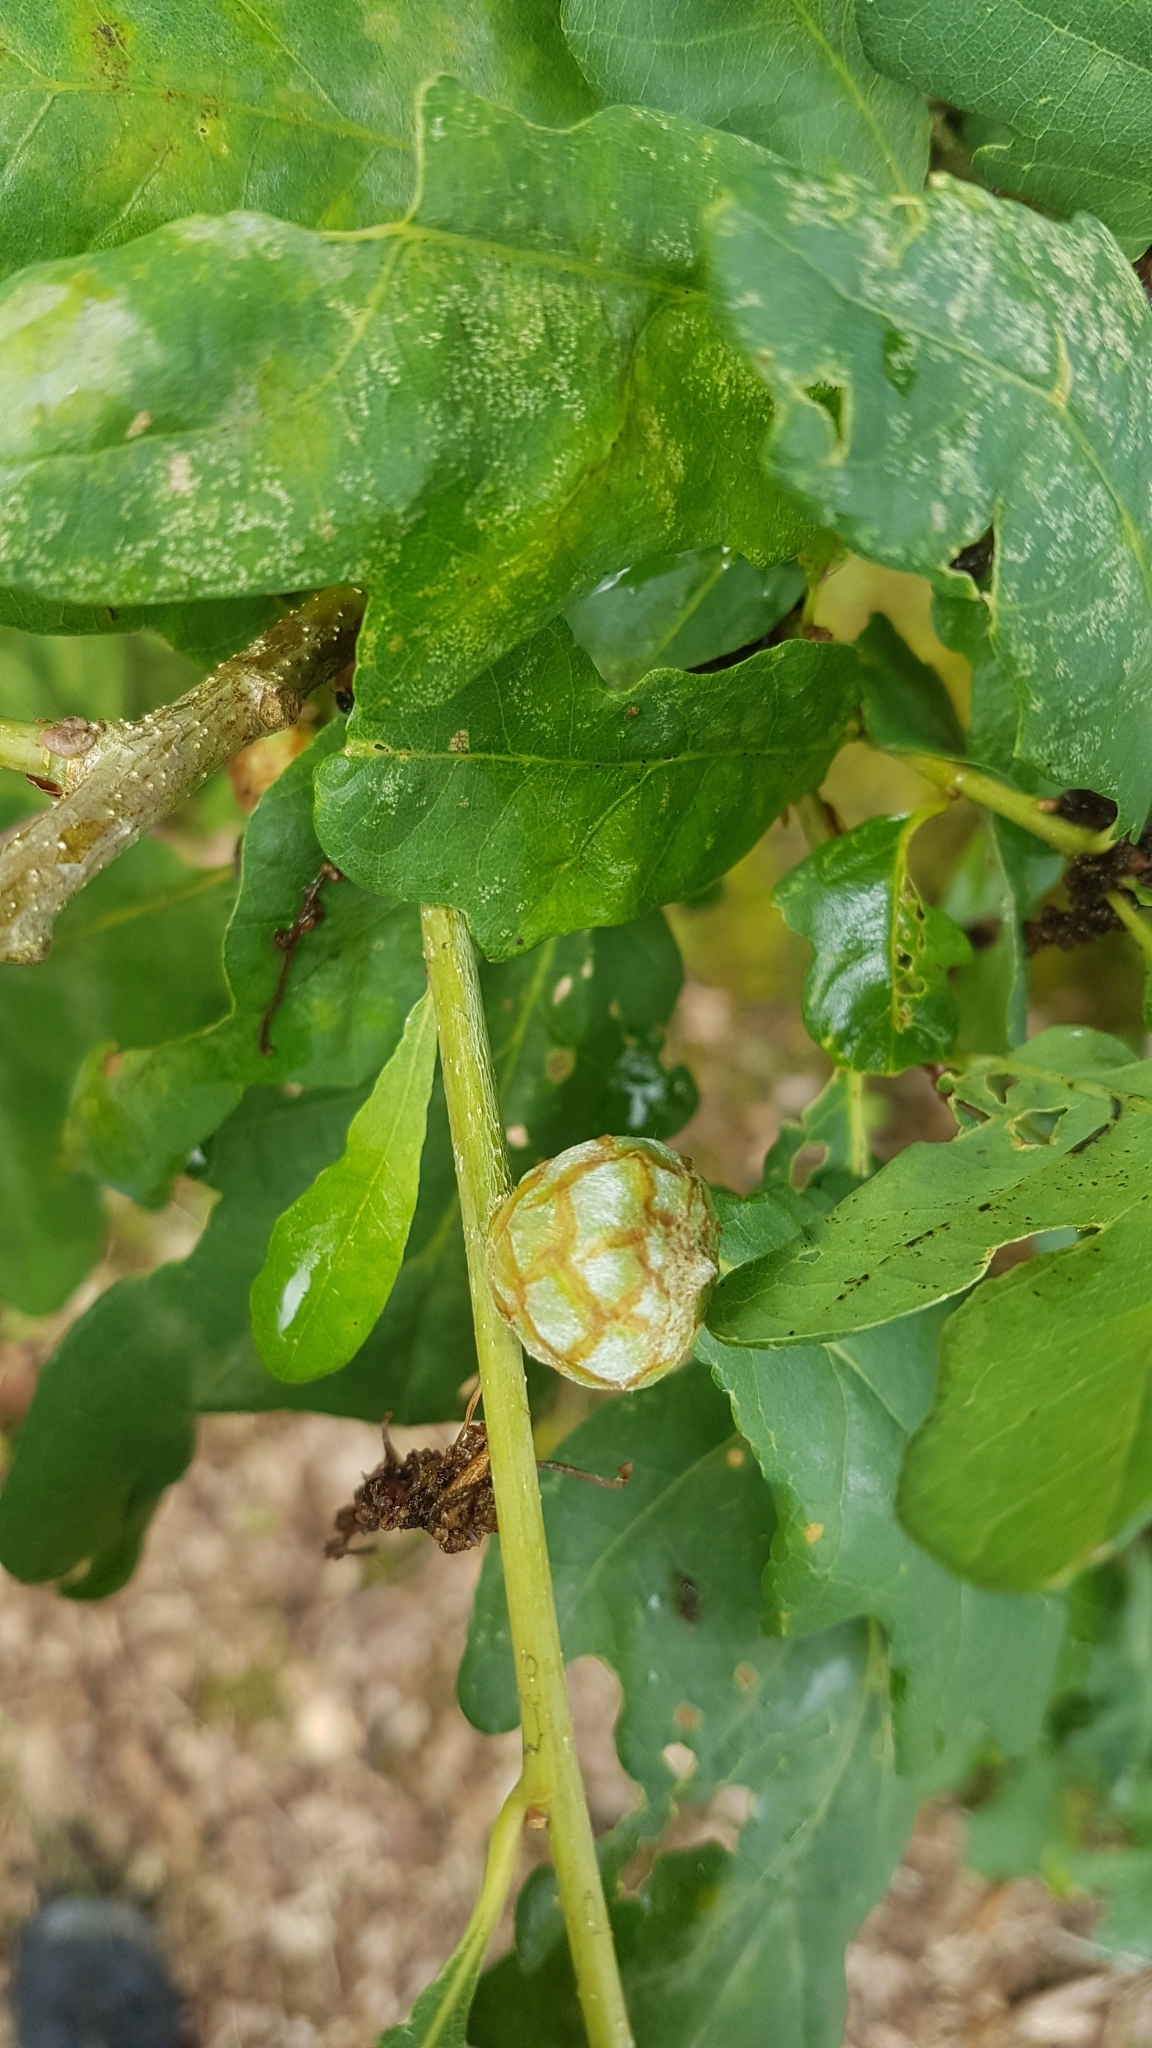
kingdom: Animalia
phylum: Arthropoda
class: Insecta
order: Hymenoptera
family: Cynipidae
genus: Andricus
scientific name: Andricus foecundatrix
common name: Artichoke gall
